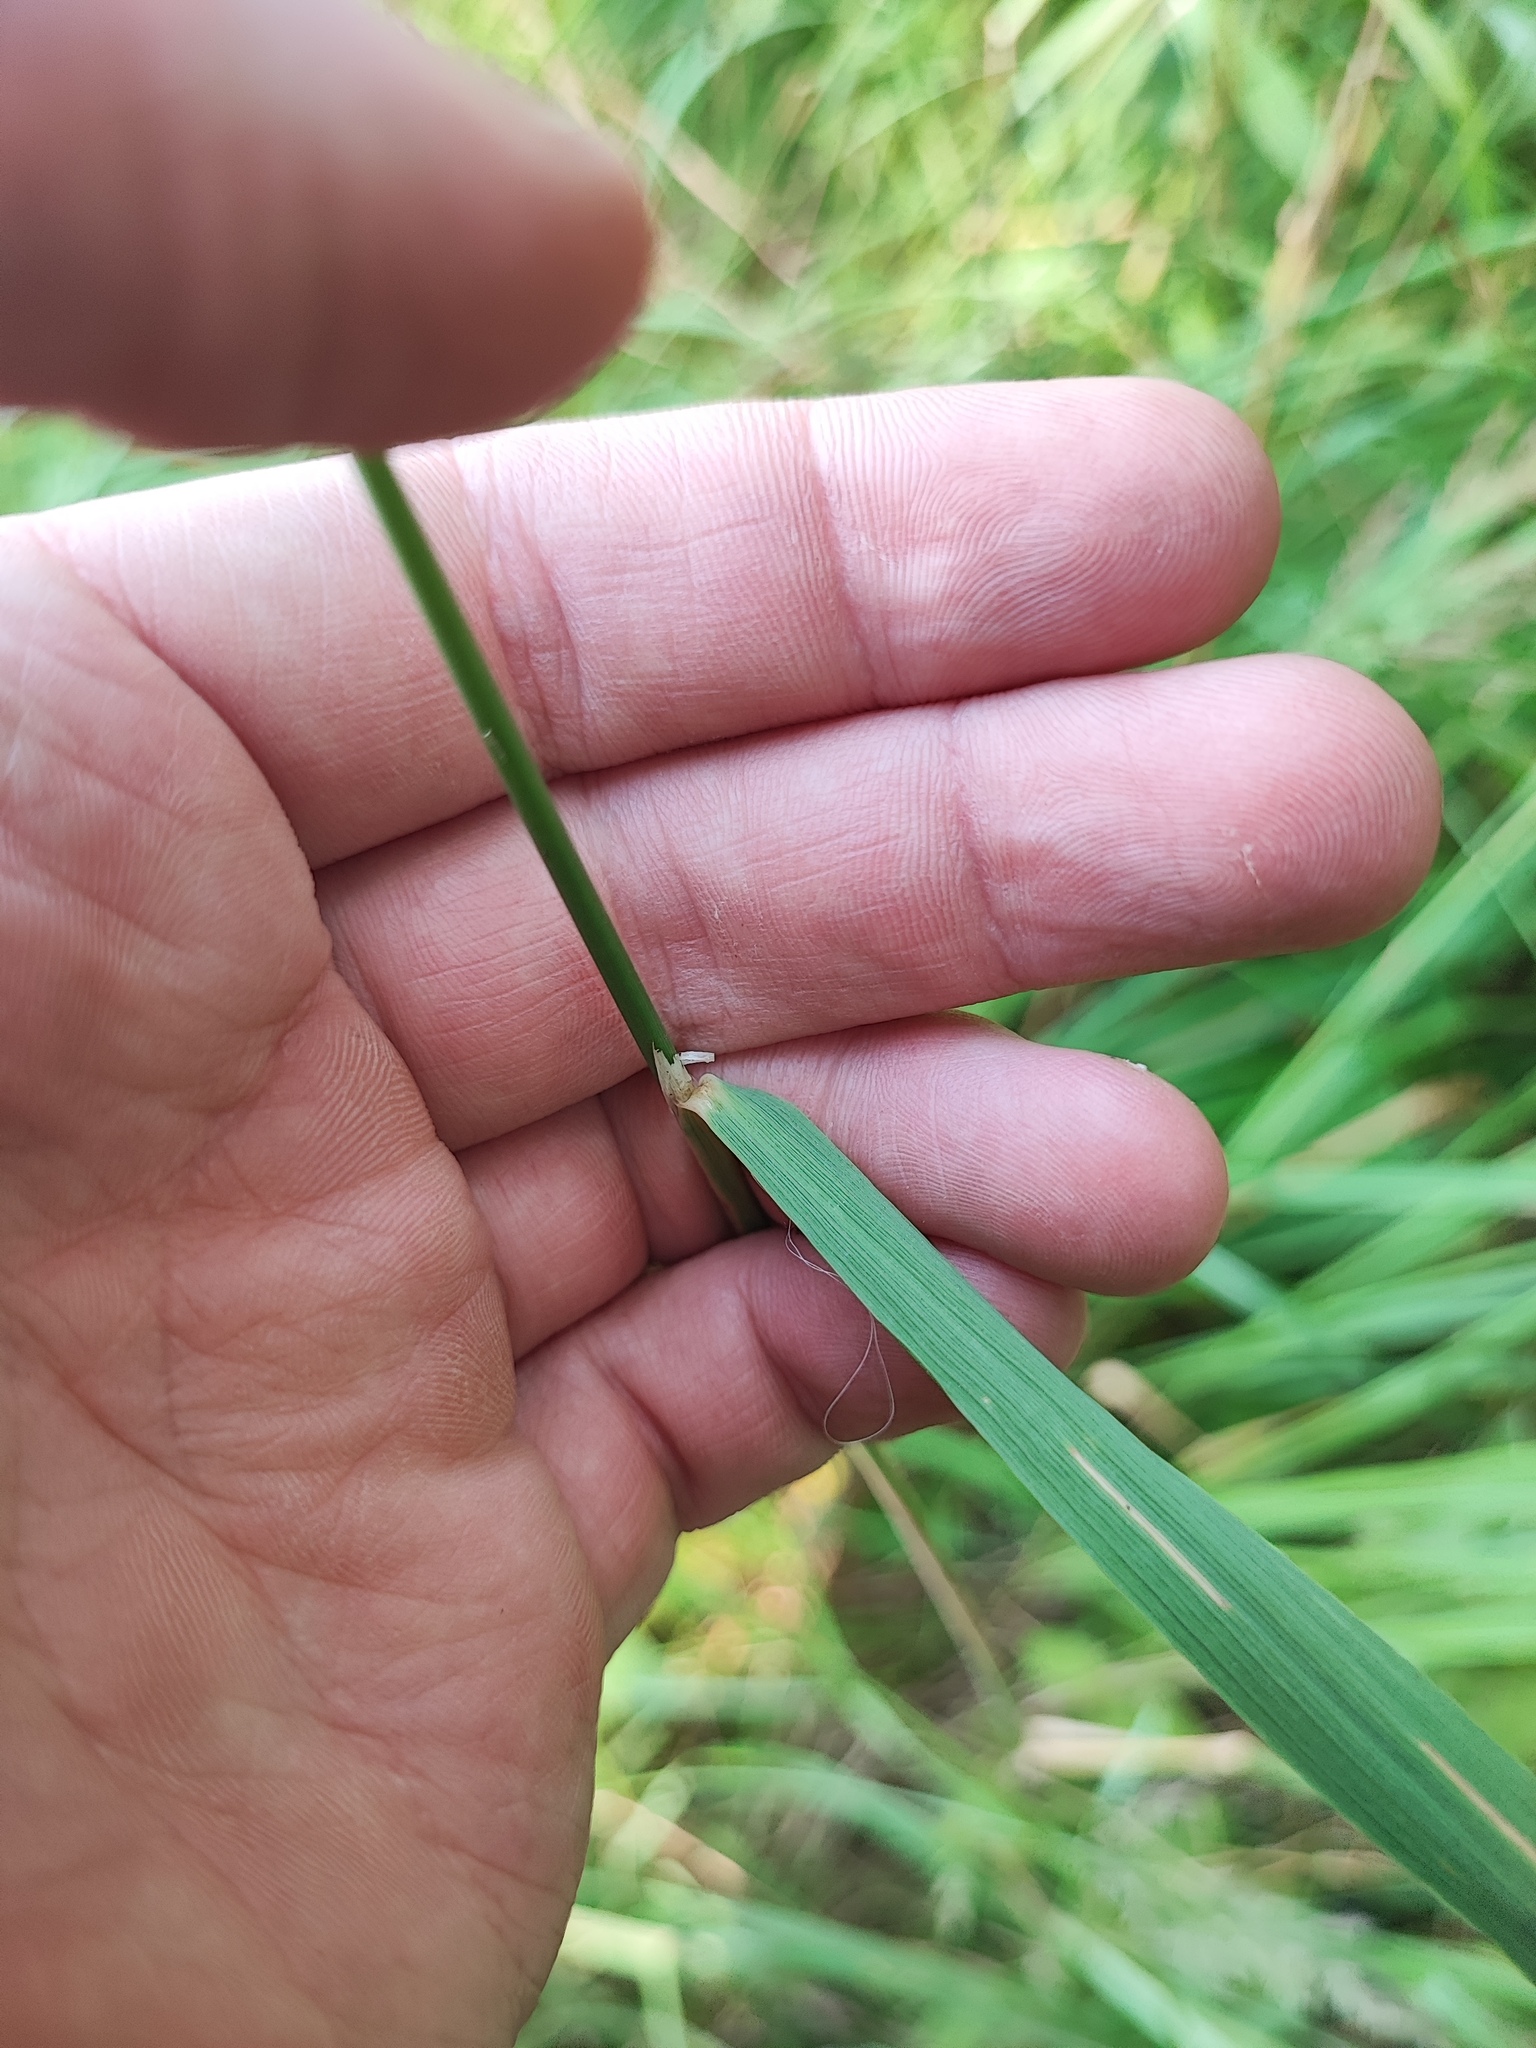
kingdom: Plantae
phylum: Tracheophyta
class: Liliopsida
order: Poales
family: Poaceae
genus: Calamagrostis
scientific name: Calamagrostis epigejos
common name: Wood small-reed
